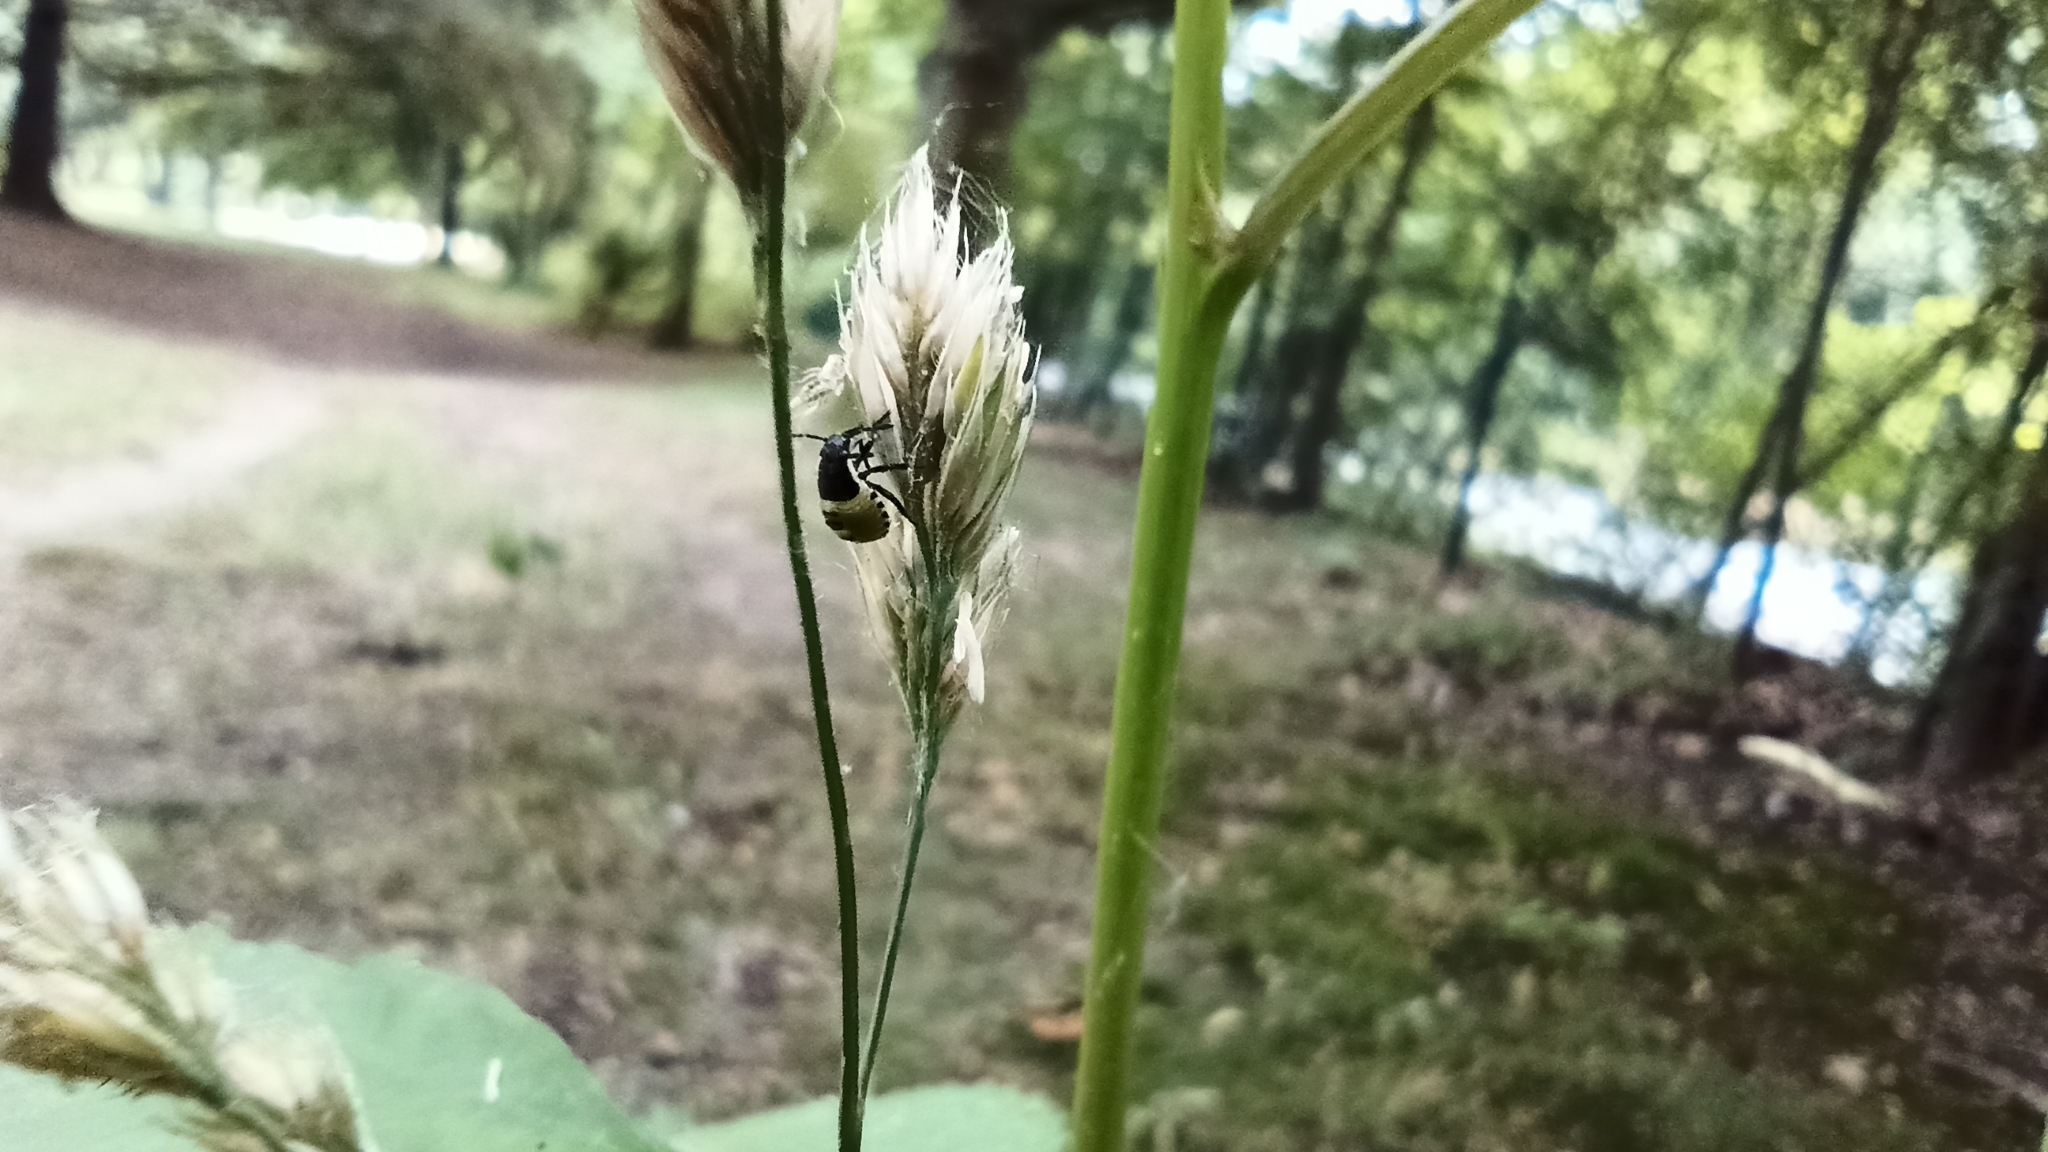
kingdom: Animalia
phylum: Arthropoda
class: Insecta
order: Hemiptera
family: Pentatomidae
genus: Palomena
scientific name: Palomena prasina
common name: Green shieldbug
